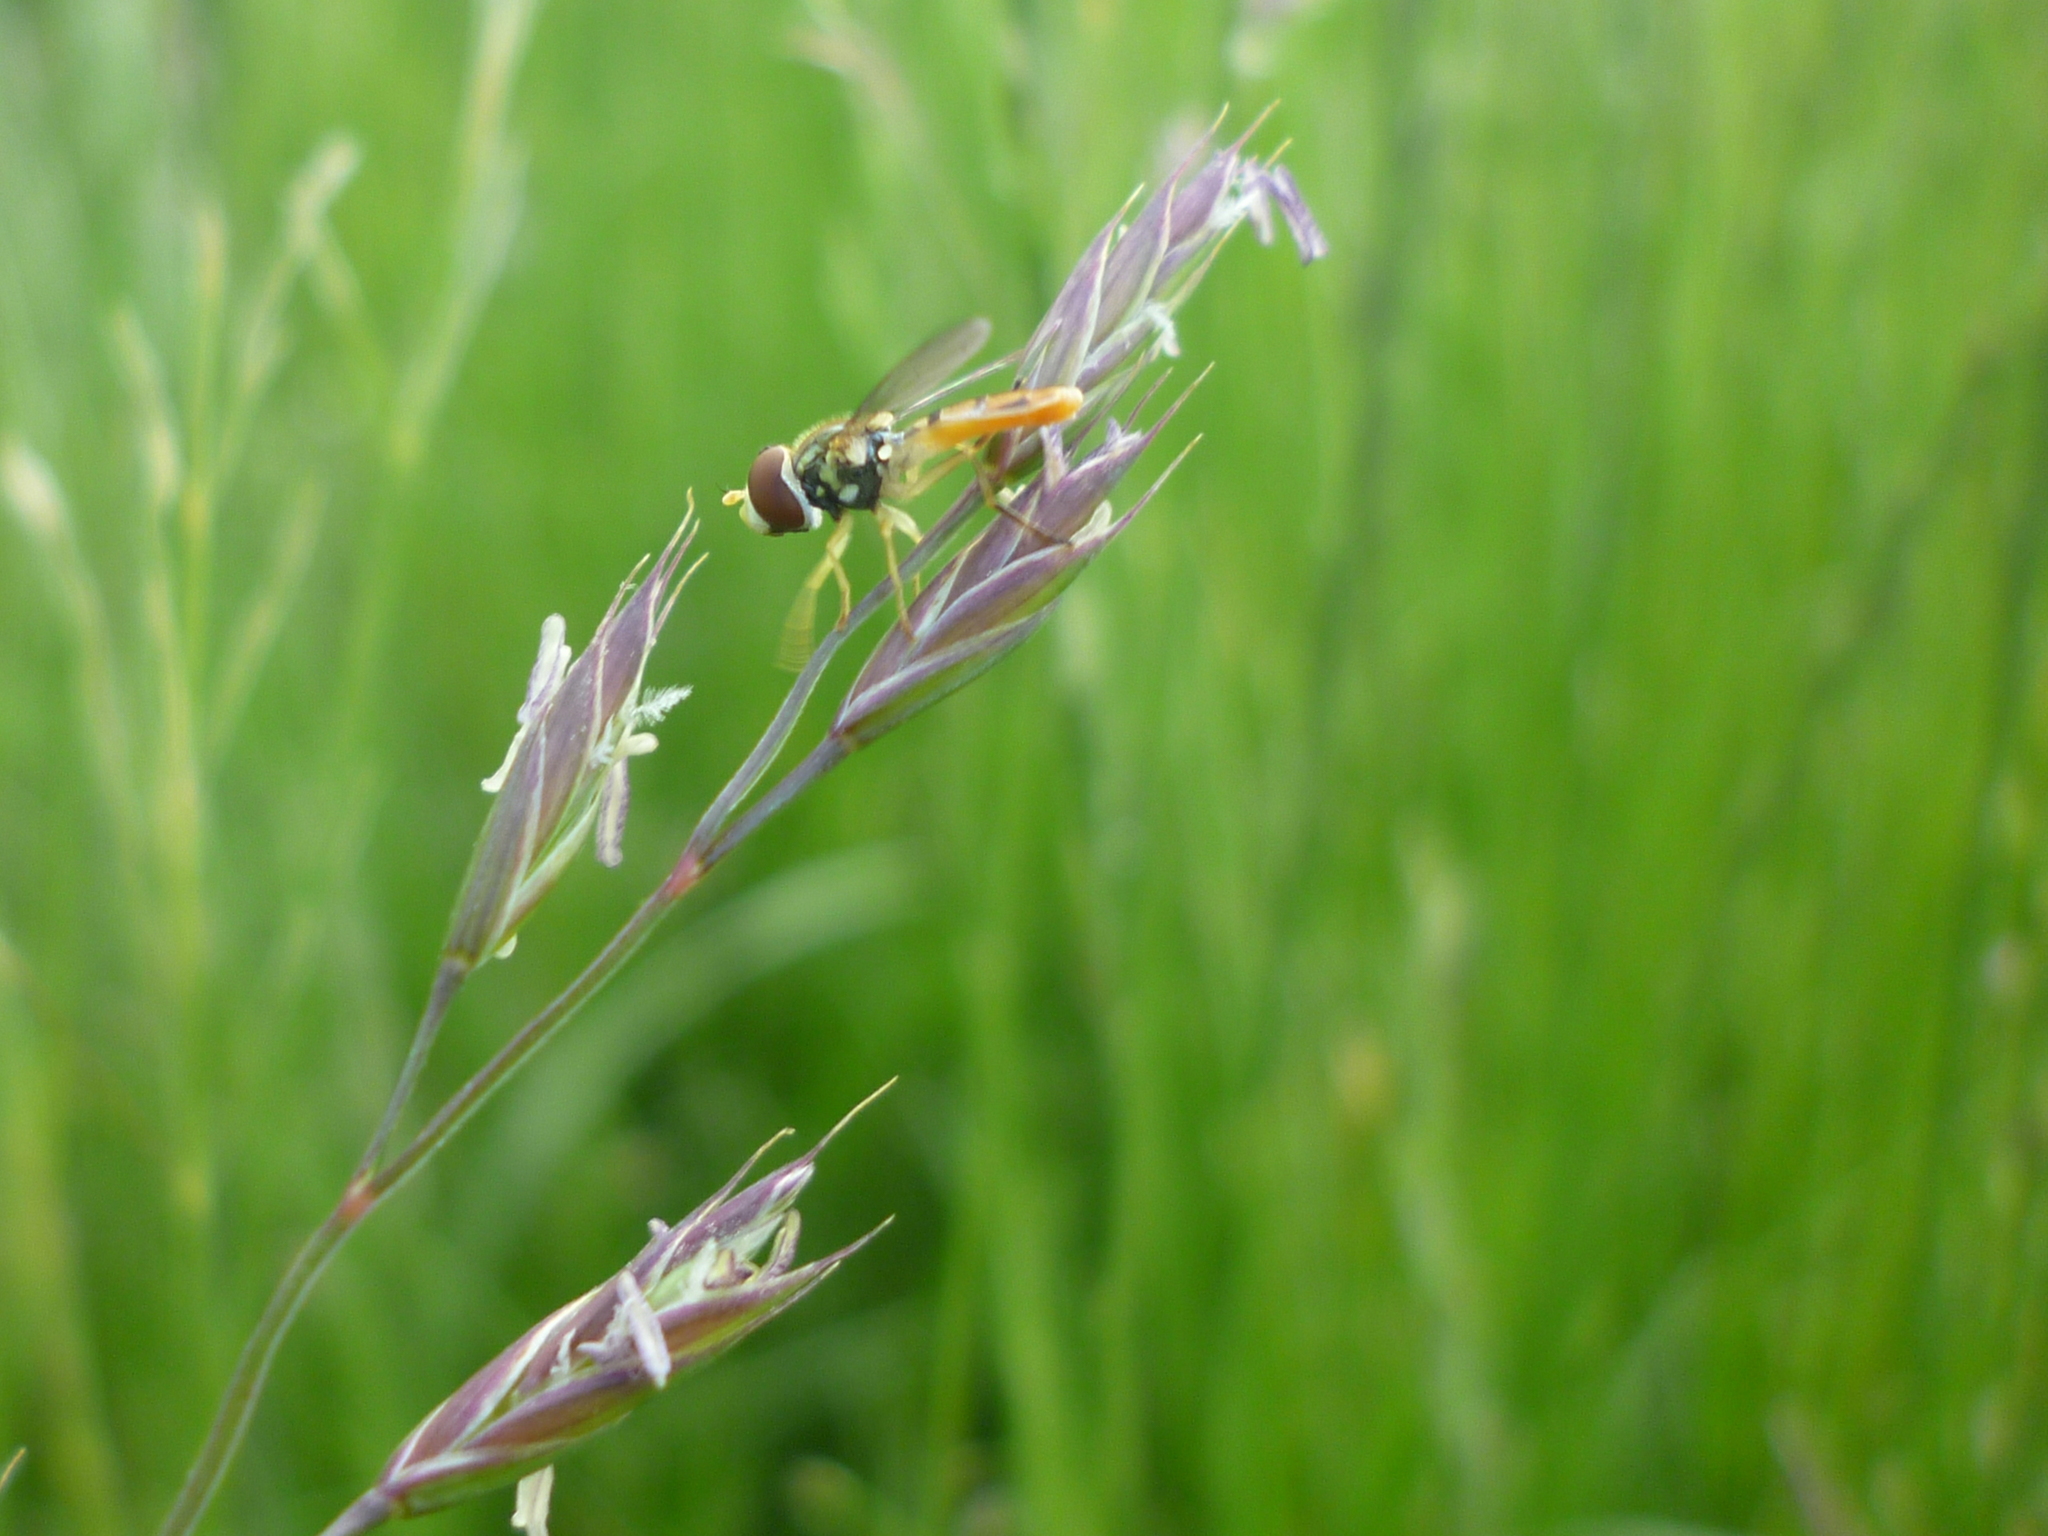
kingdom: Animalia
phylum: Arthropoda
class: Insecta
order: Diptera
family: Syrphidae
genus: Toxomerus
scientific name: Toxomerus marginatus
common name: Syrphid fly
